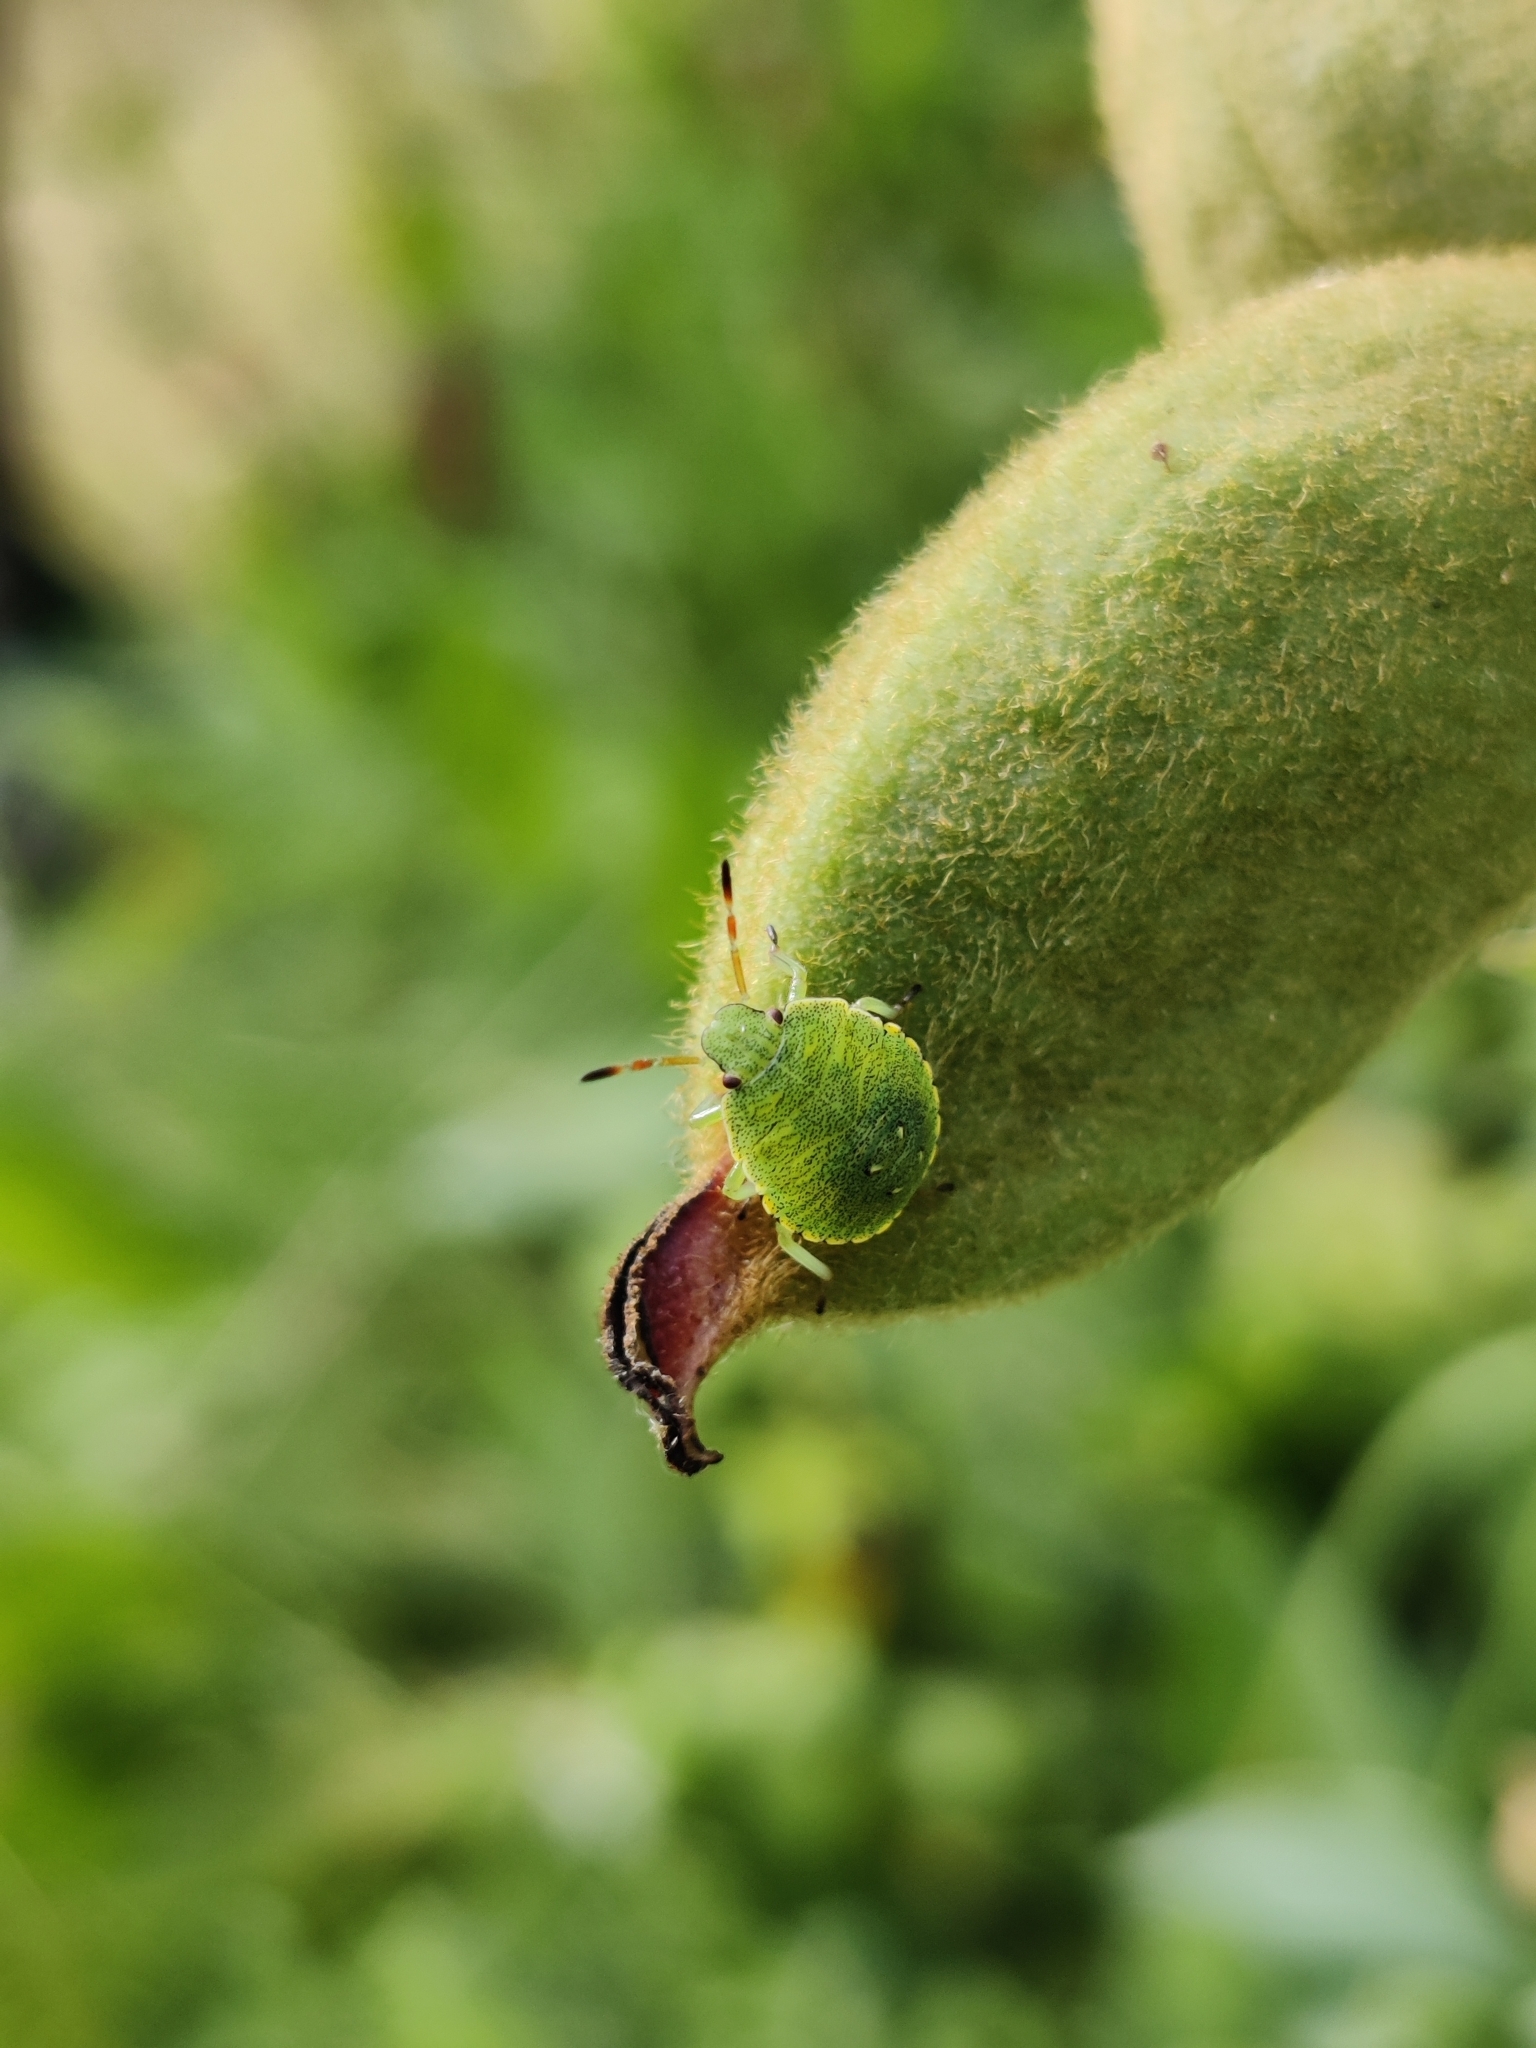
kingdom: Animalia
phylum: Arthropoda
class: Insecta
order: Hemiptera
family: Pentatomidae
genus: Palomena
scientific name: Palomena prasina
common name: Green shieldbug
